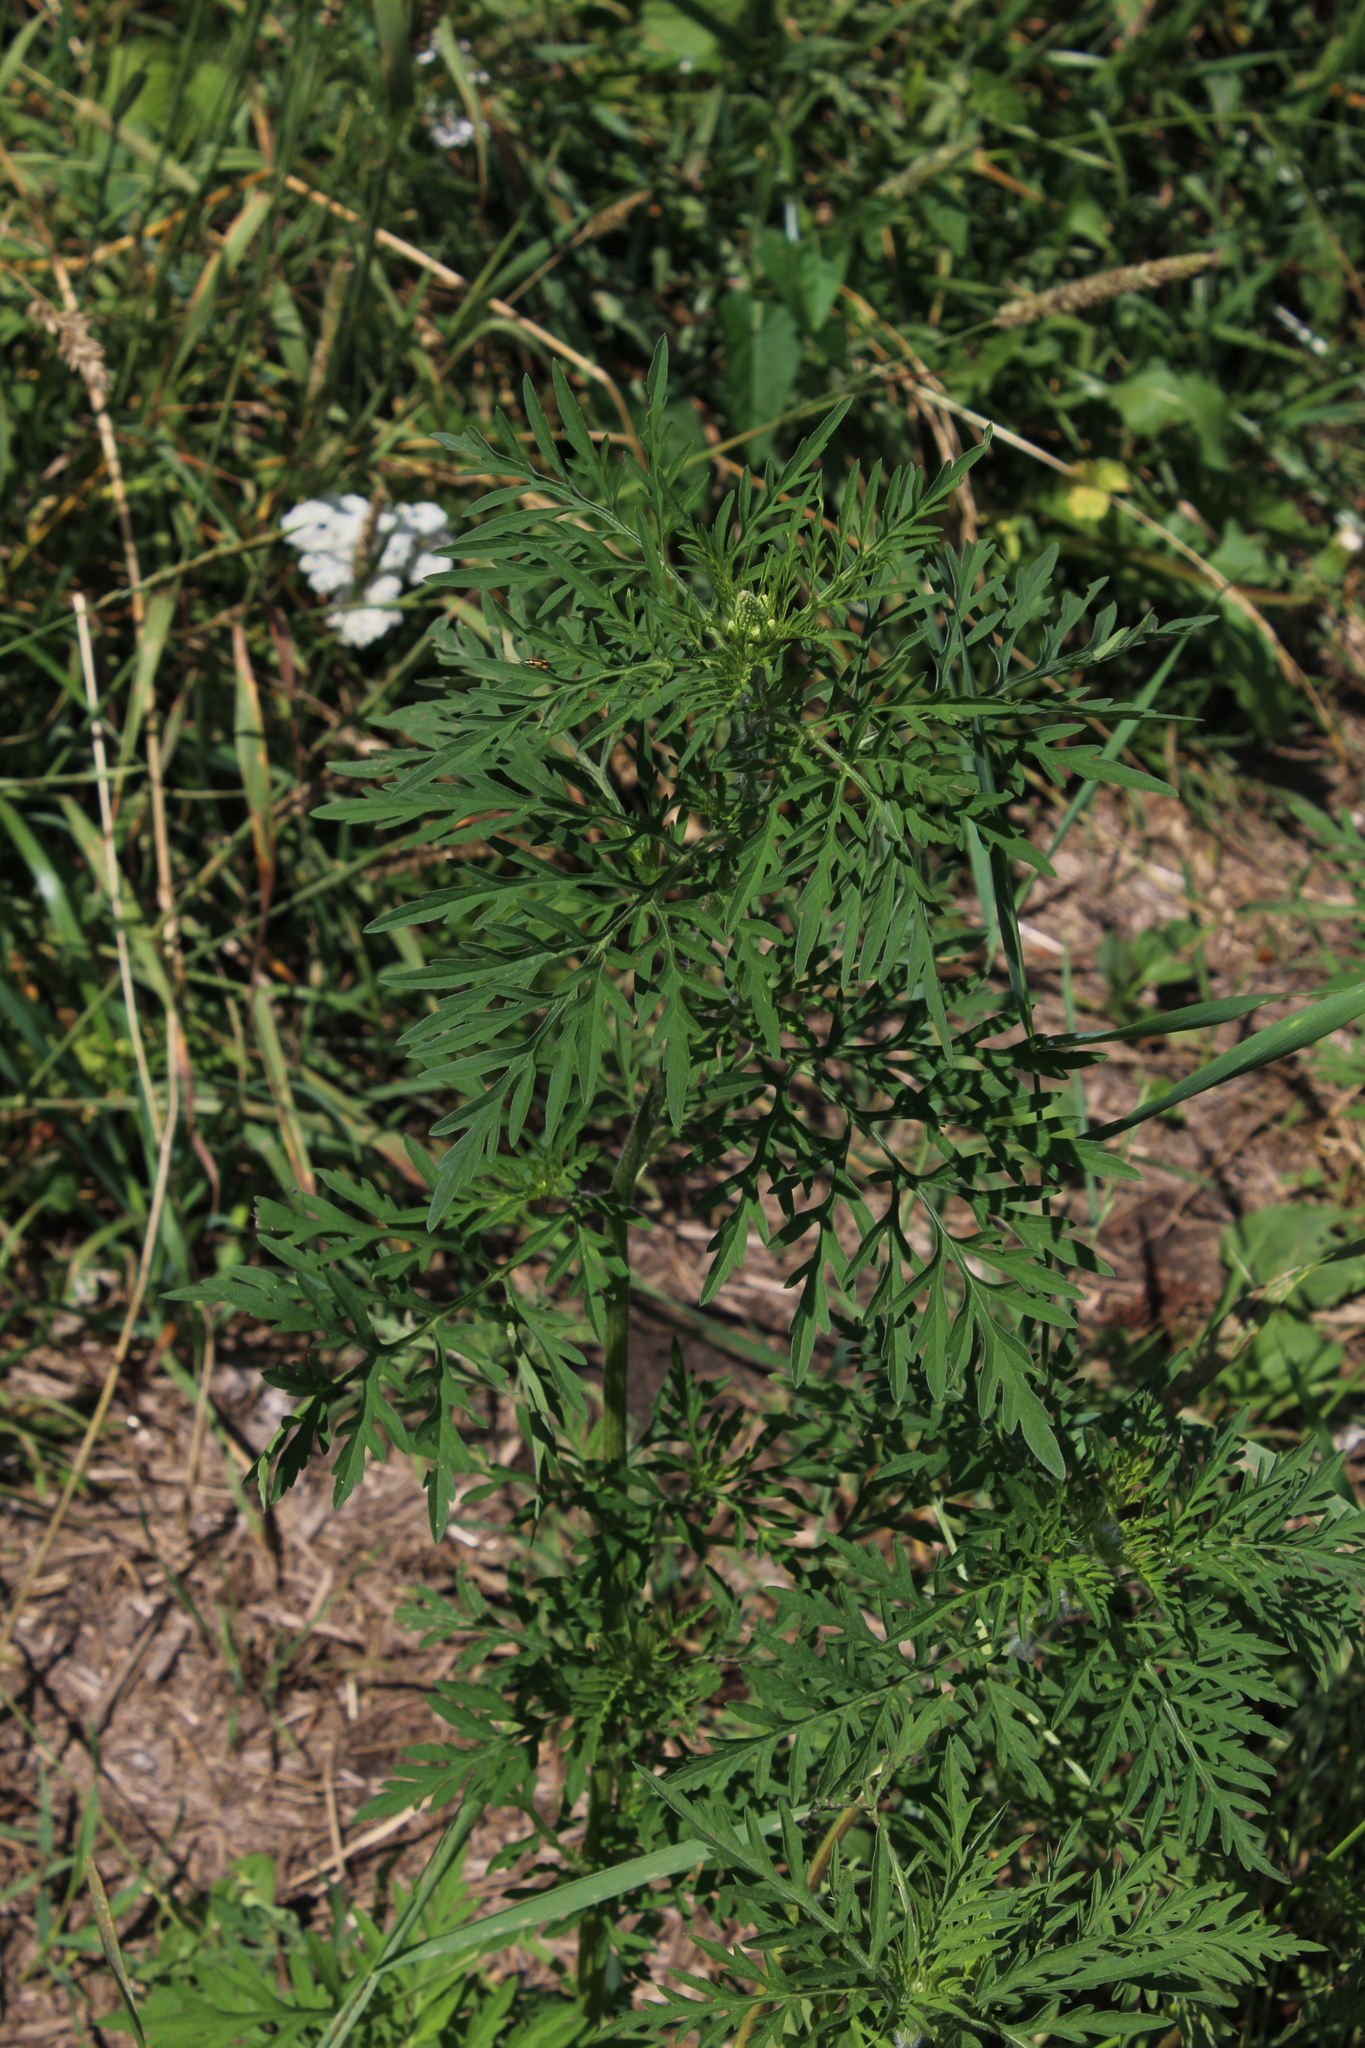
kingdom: Plantae
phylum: Tracheophyta
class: Magnoliopsida
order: Asterales
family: Asteraceae
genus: Ambrosia
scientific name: Ambrosia artemisiifolia
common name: Annual ragweed
